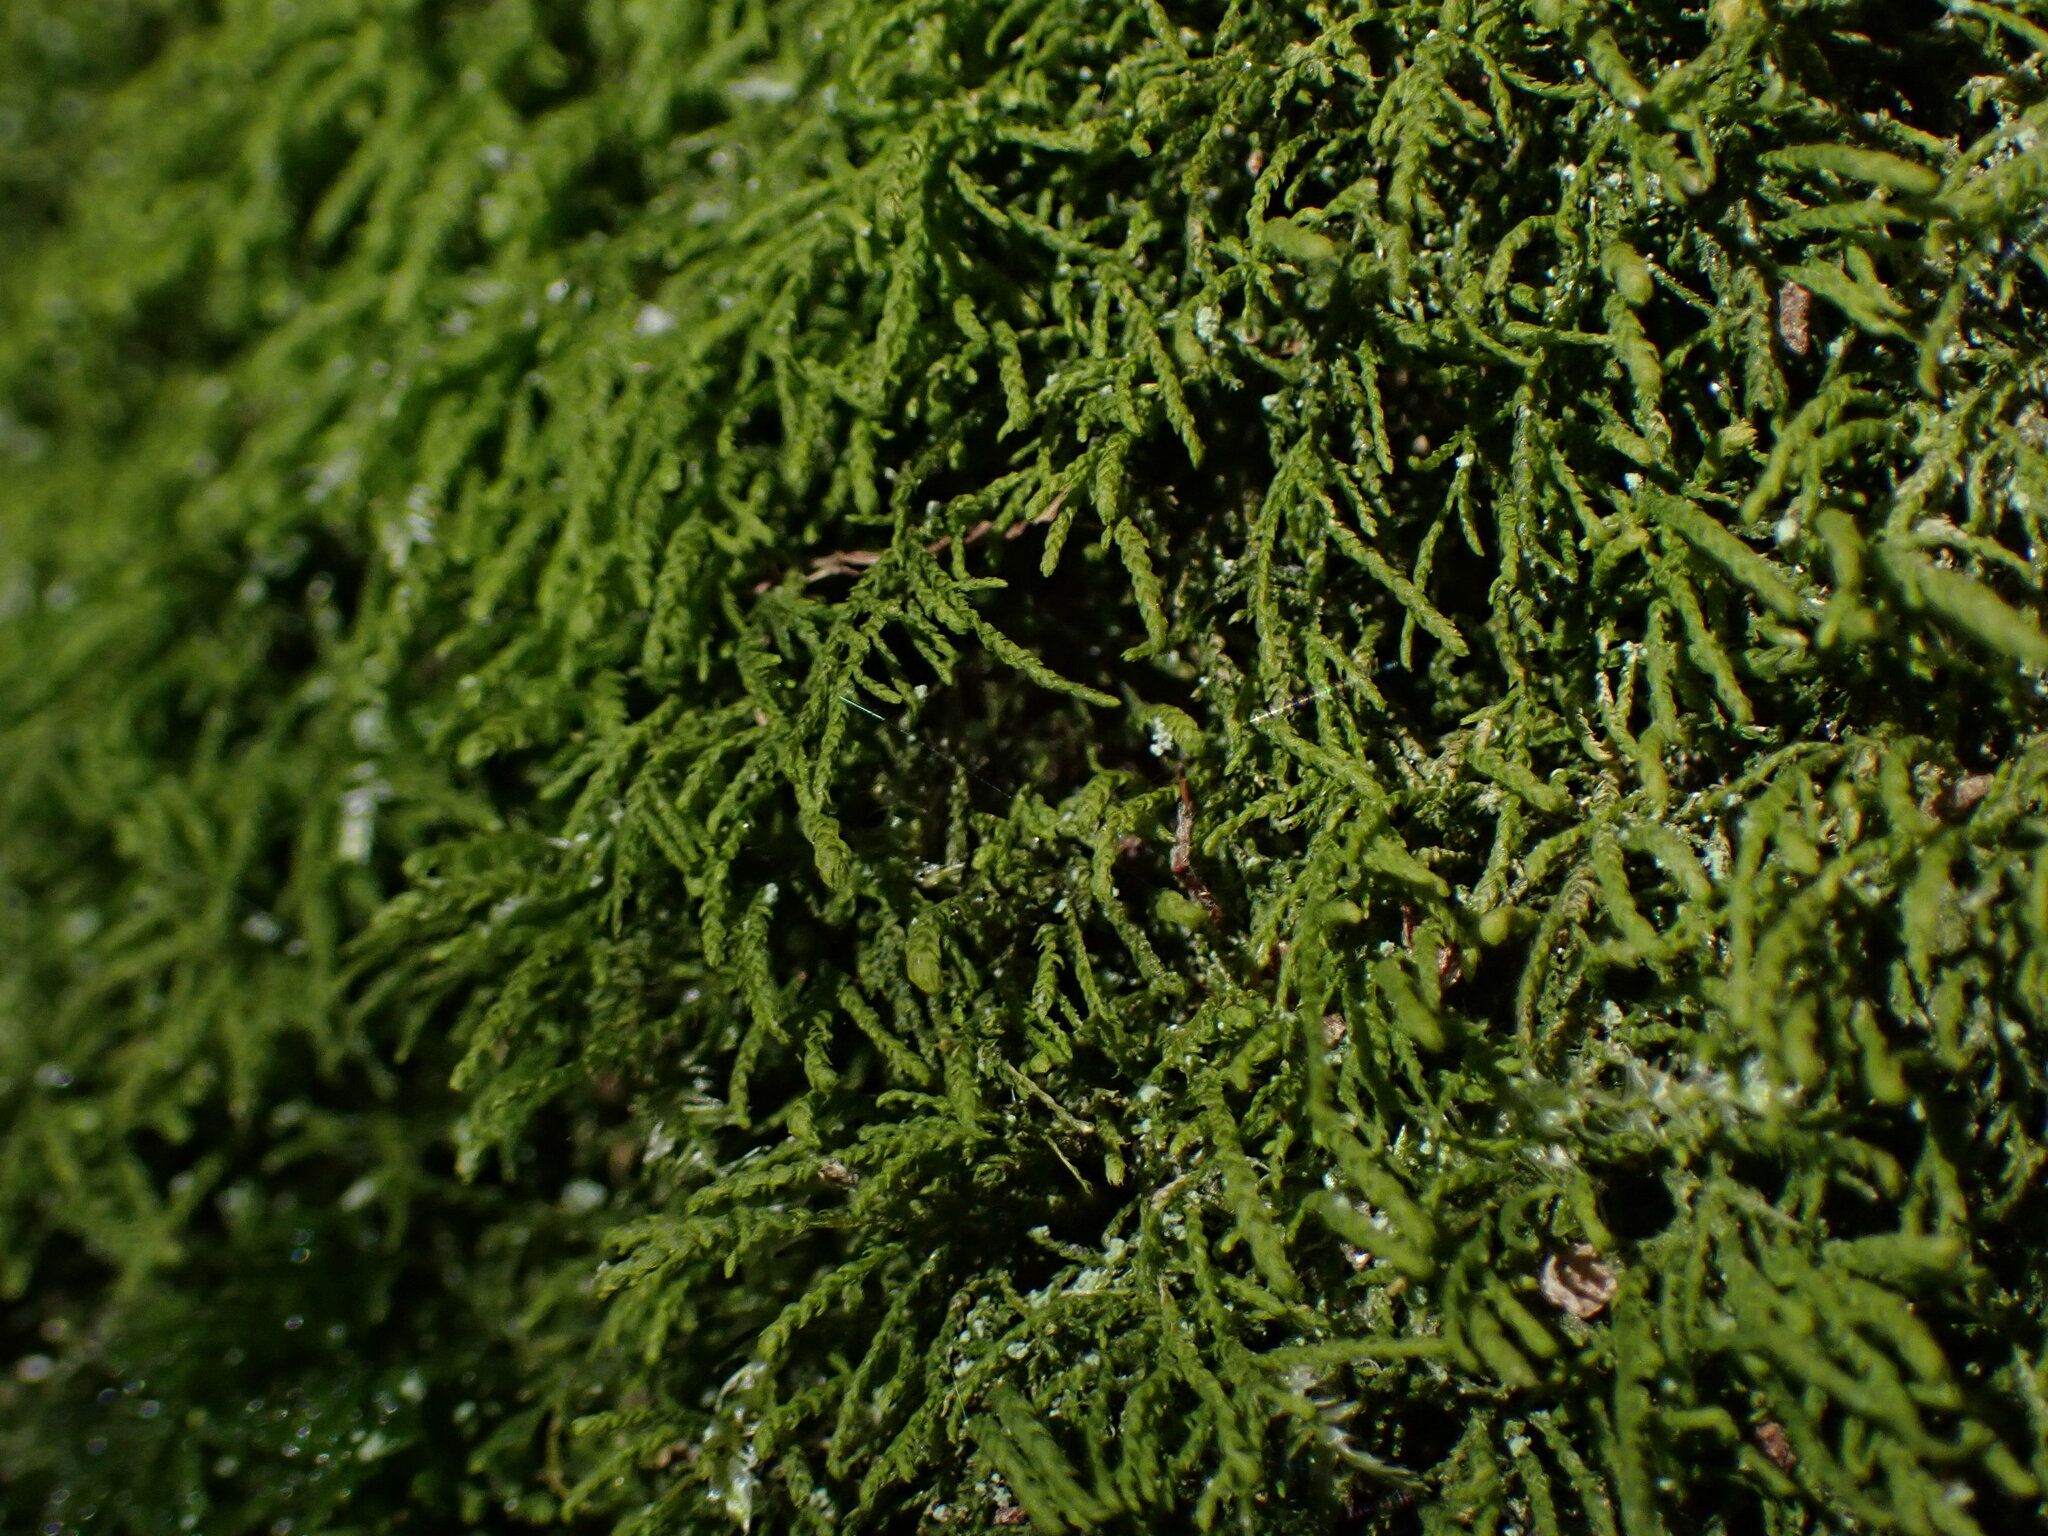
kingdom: Plantae
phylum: Bryophyta
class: Bryopsida
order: Hypnales
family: Lembophyllaceae
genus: Heterocladium
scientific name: Heterocladium macounii
